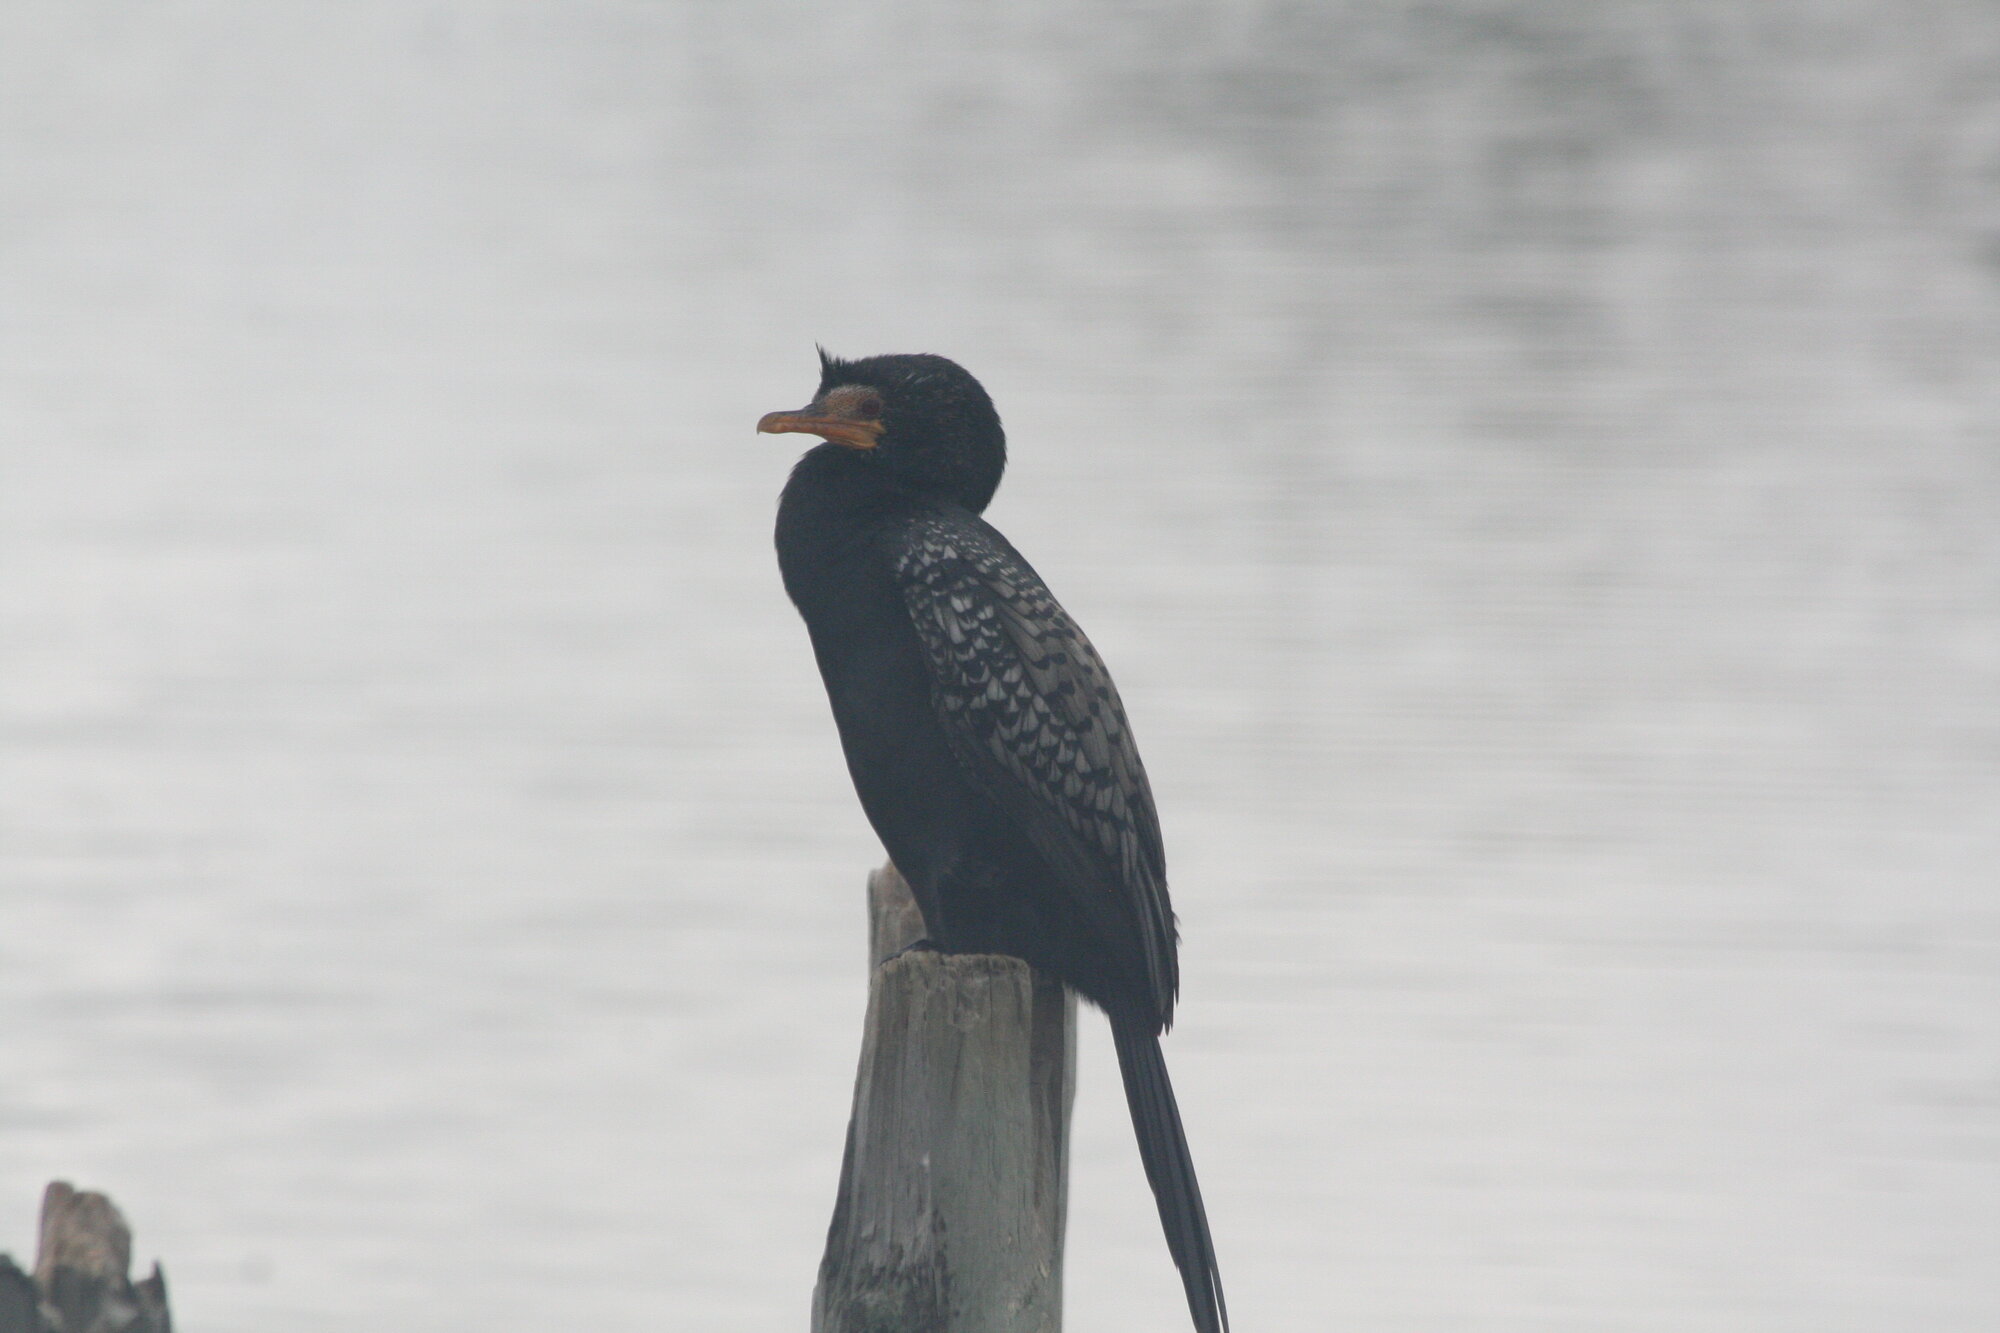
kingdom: Animalia
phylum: Chordata
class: Aves
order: Suliformes
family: Phalacrocoracidae
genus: Microcarbo
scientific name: Microcarbo africanus
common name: Long-tailed cormorant
